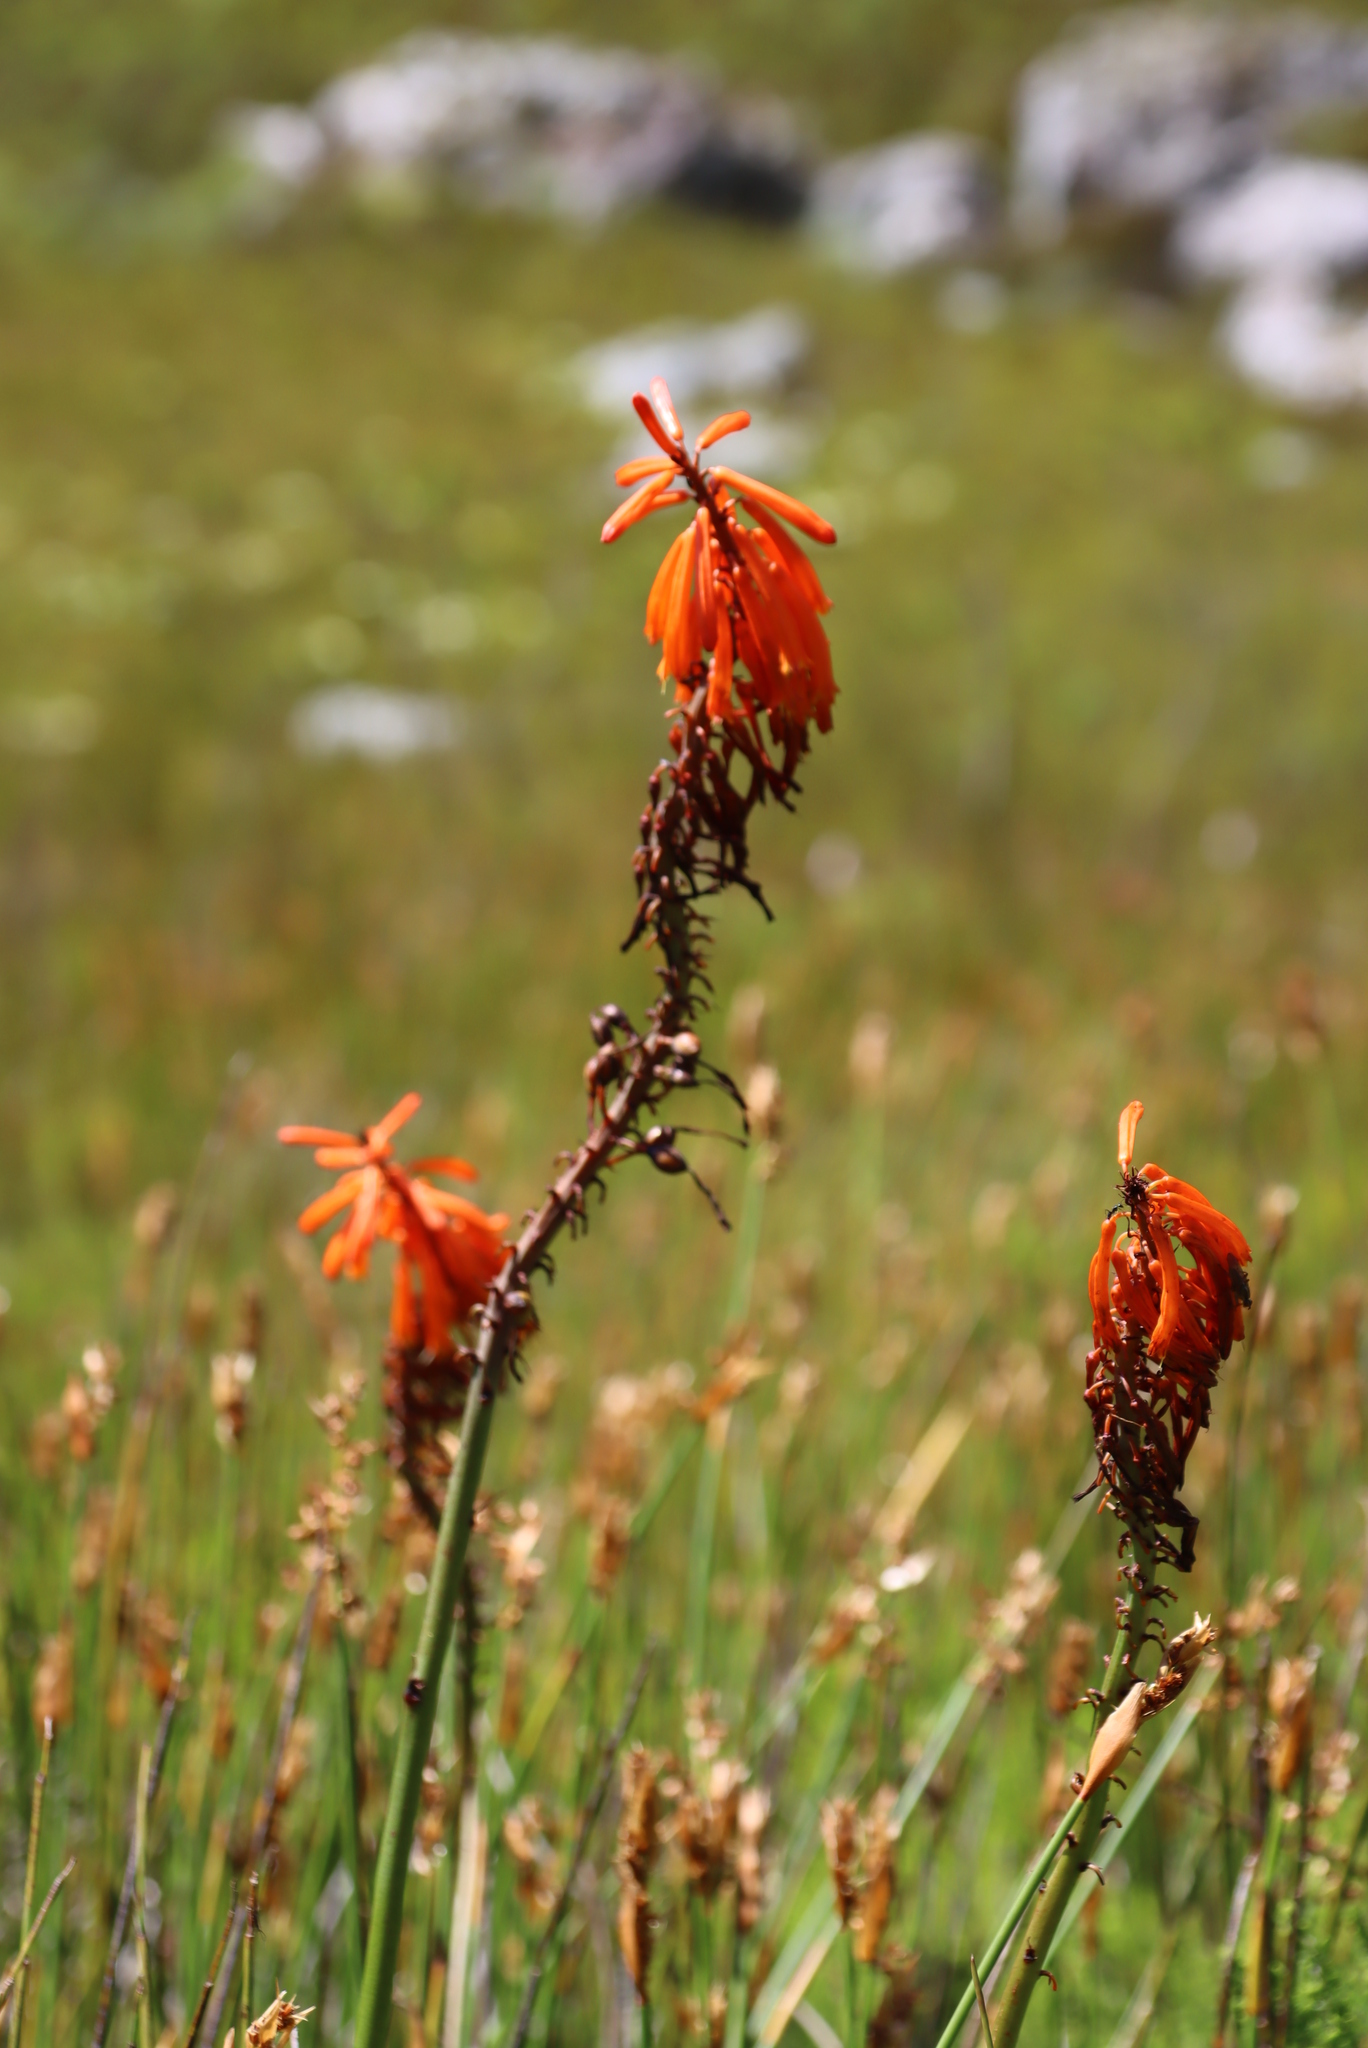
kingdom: Plantae
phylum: Tracheophyta
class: Liliopsida
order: Asparagales
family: Asphodelaceae
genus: Kniphofia
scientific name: Kniphofia uvaria
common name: Red-hot-poker
